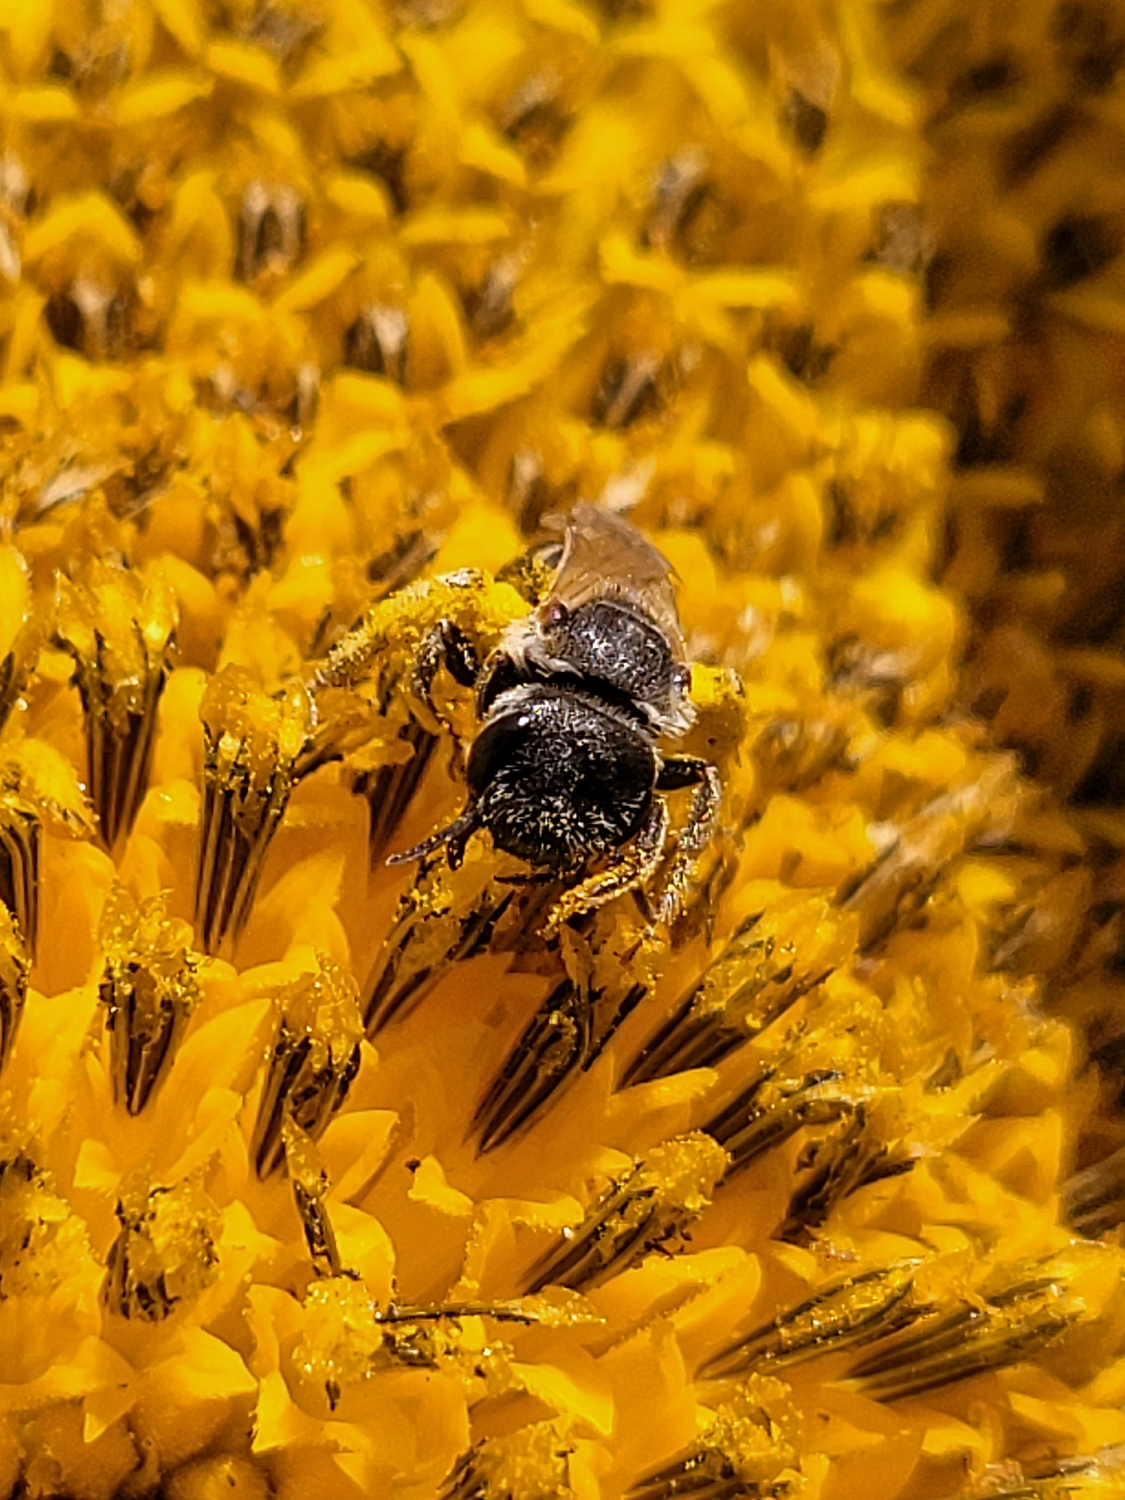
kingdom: Animalia
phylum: Arthropoda
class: Insecta
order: Hymenoptera
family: Halictidae
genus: Halictus
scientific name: Halictus ligatus
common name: Ligated furrow bee
